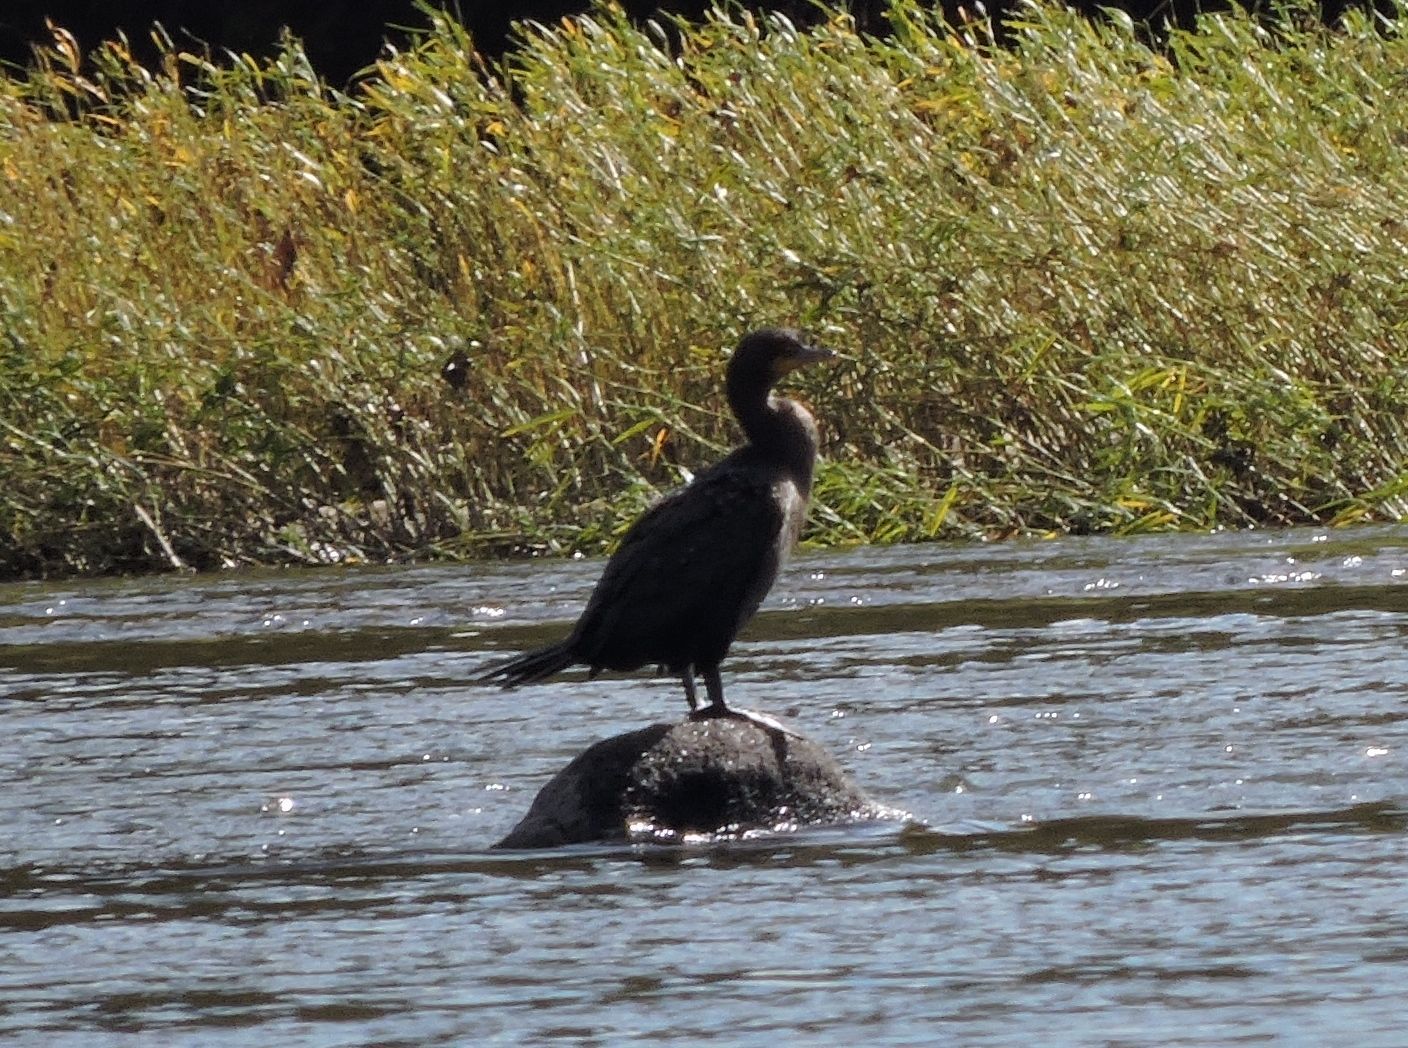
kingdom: Animalia
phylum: Chordata
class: Aves
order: Suliformes
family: Phalacrocoracidae
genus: Phalacrocorax
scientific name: Phalacrocorax auritus
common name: Double-crested cormorant
